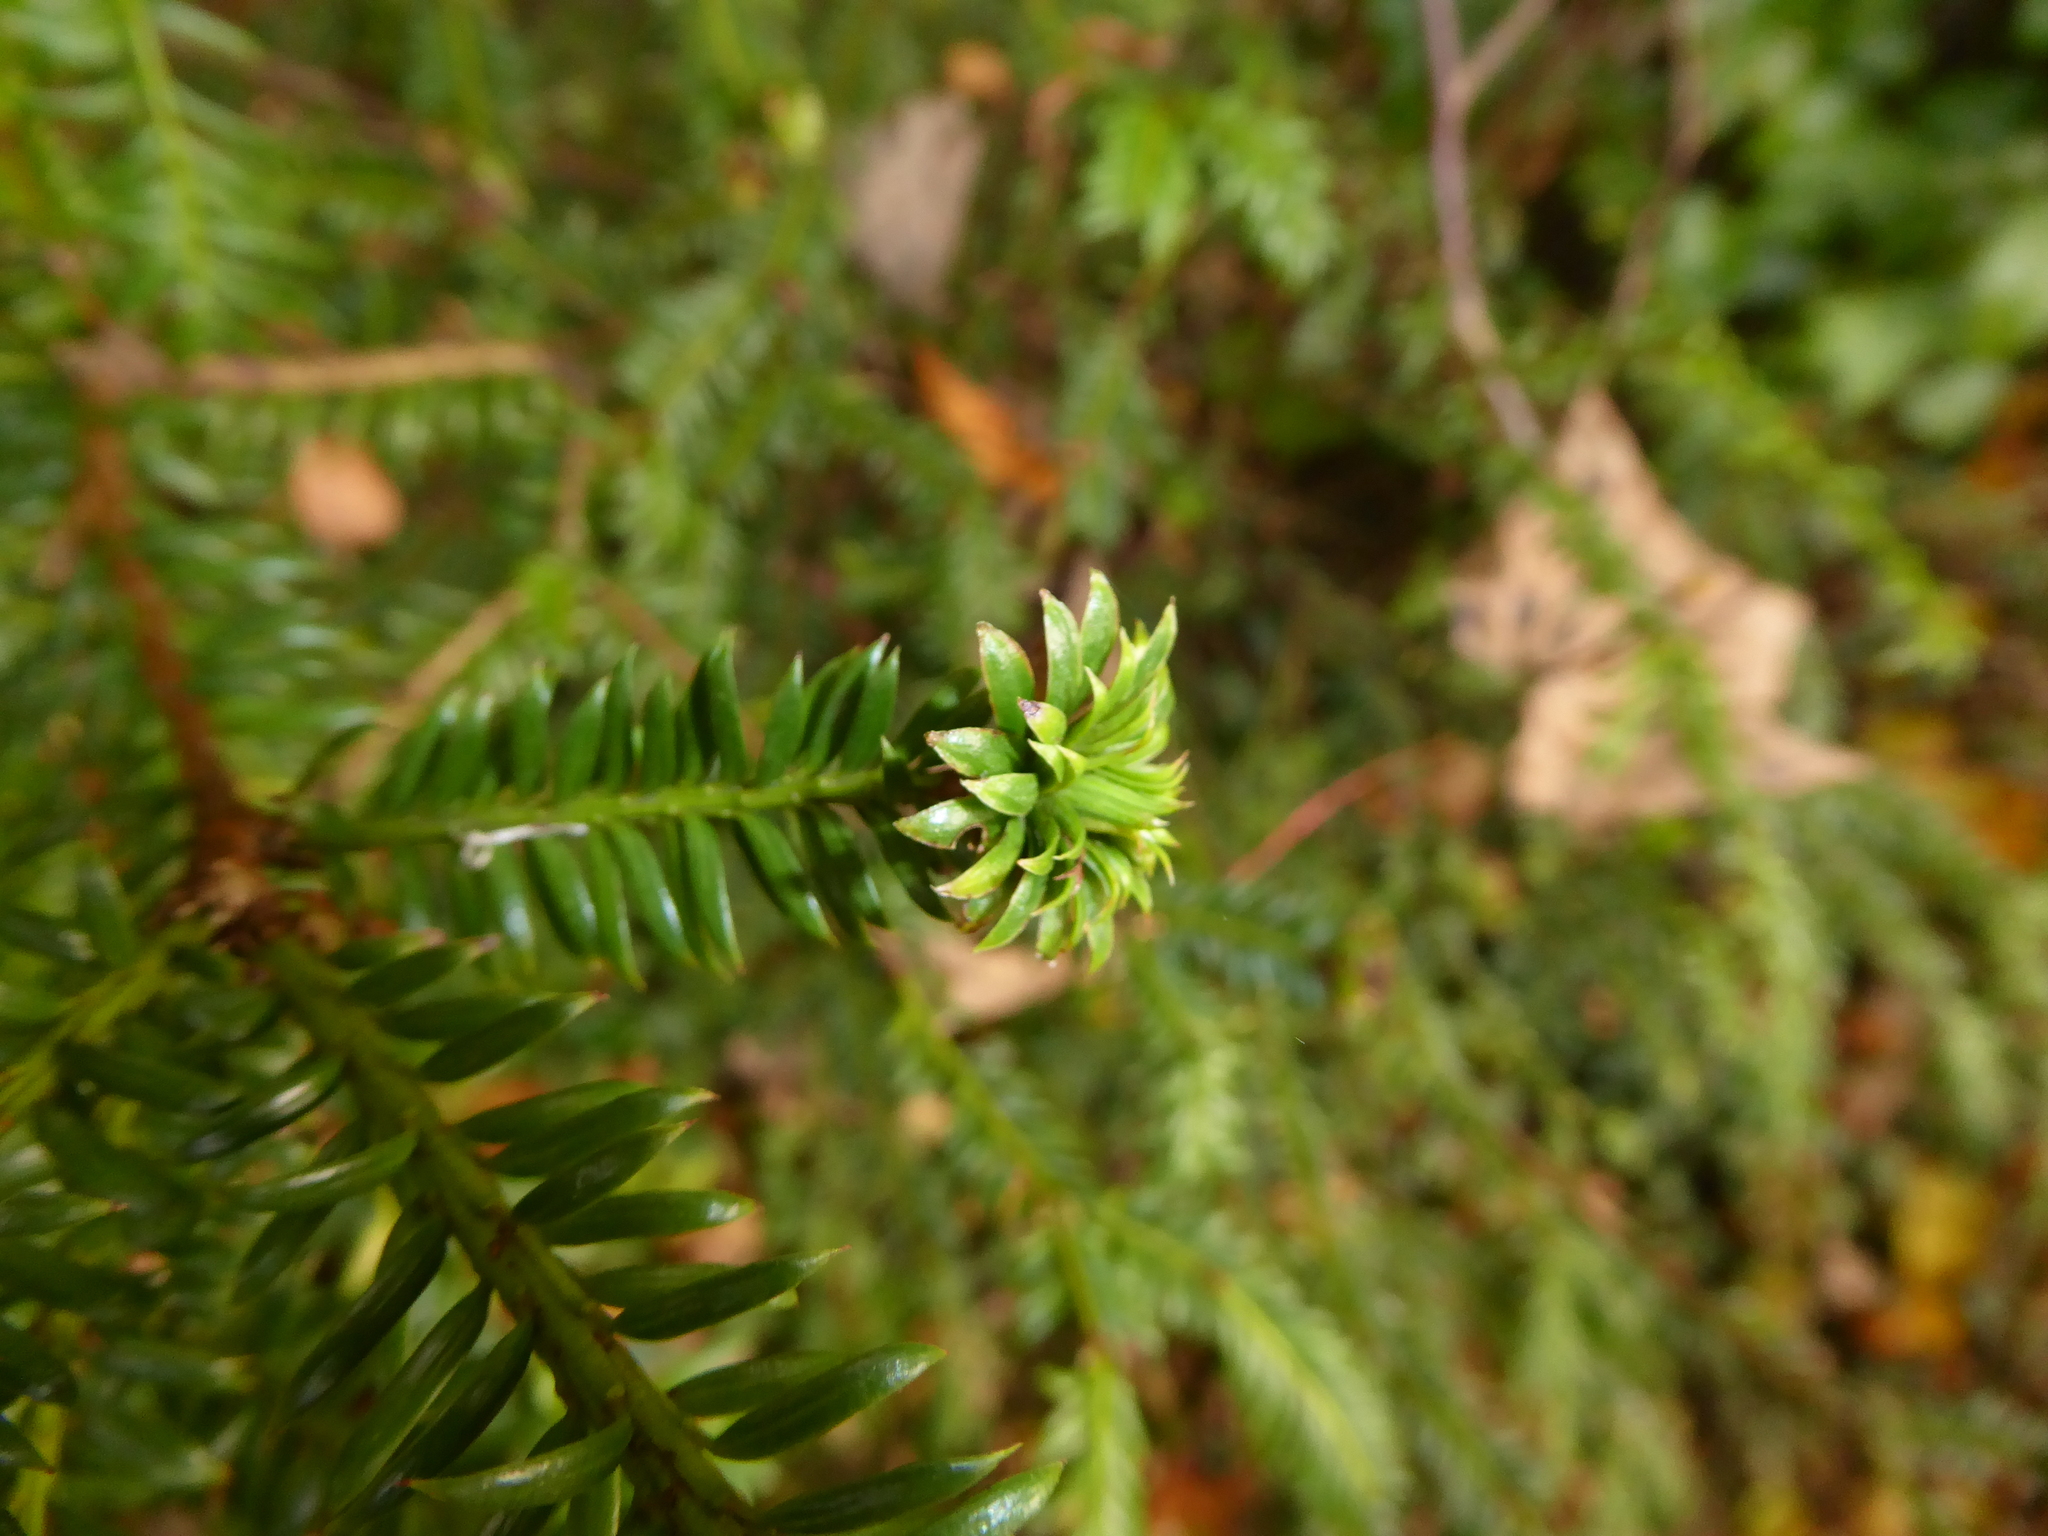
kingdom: Plantae
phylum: Tracheophyta
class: Pinopsida
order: Pinales
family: Taxaceae
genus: Taxus
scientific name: Taxus baccata
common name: Yew
